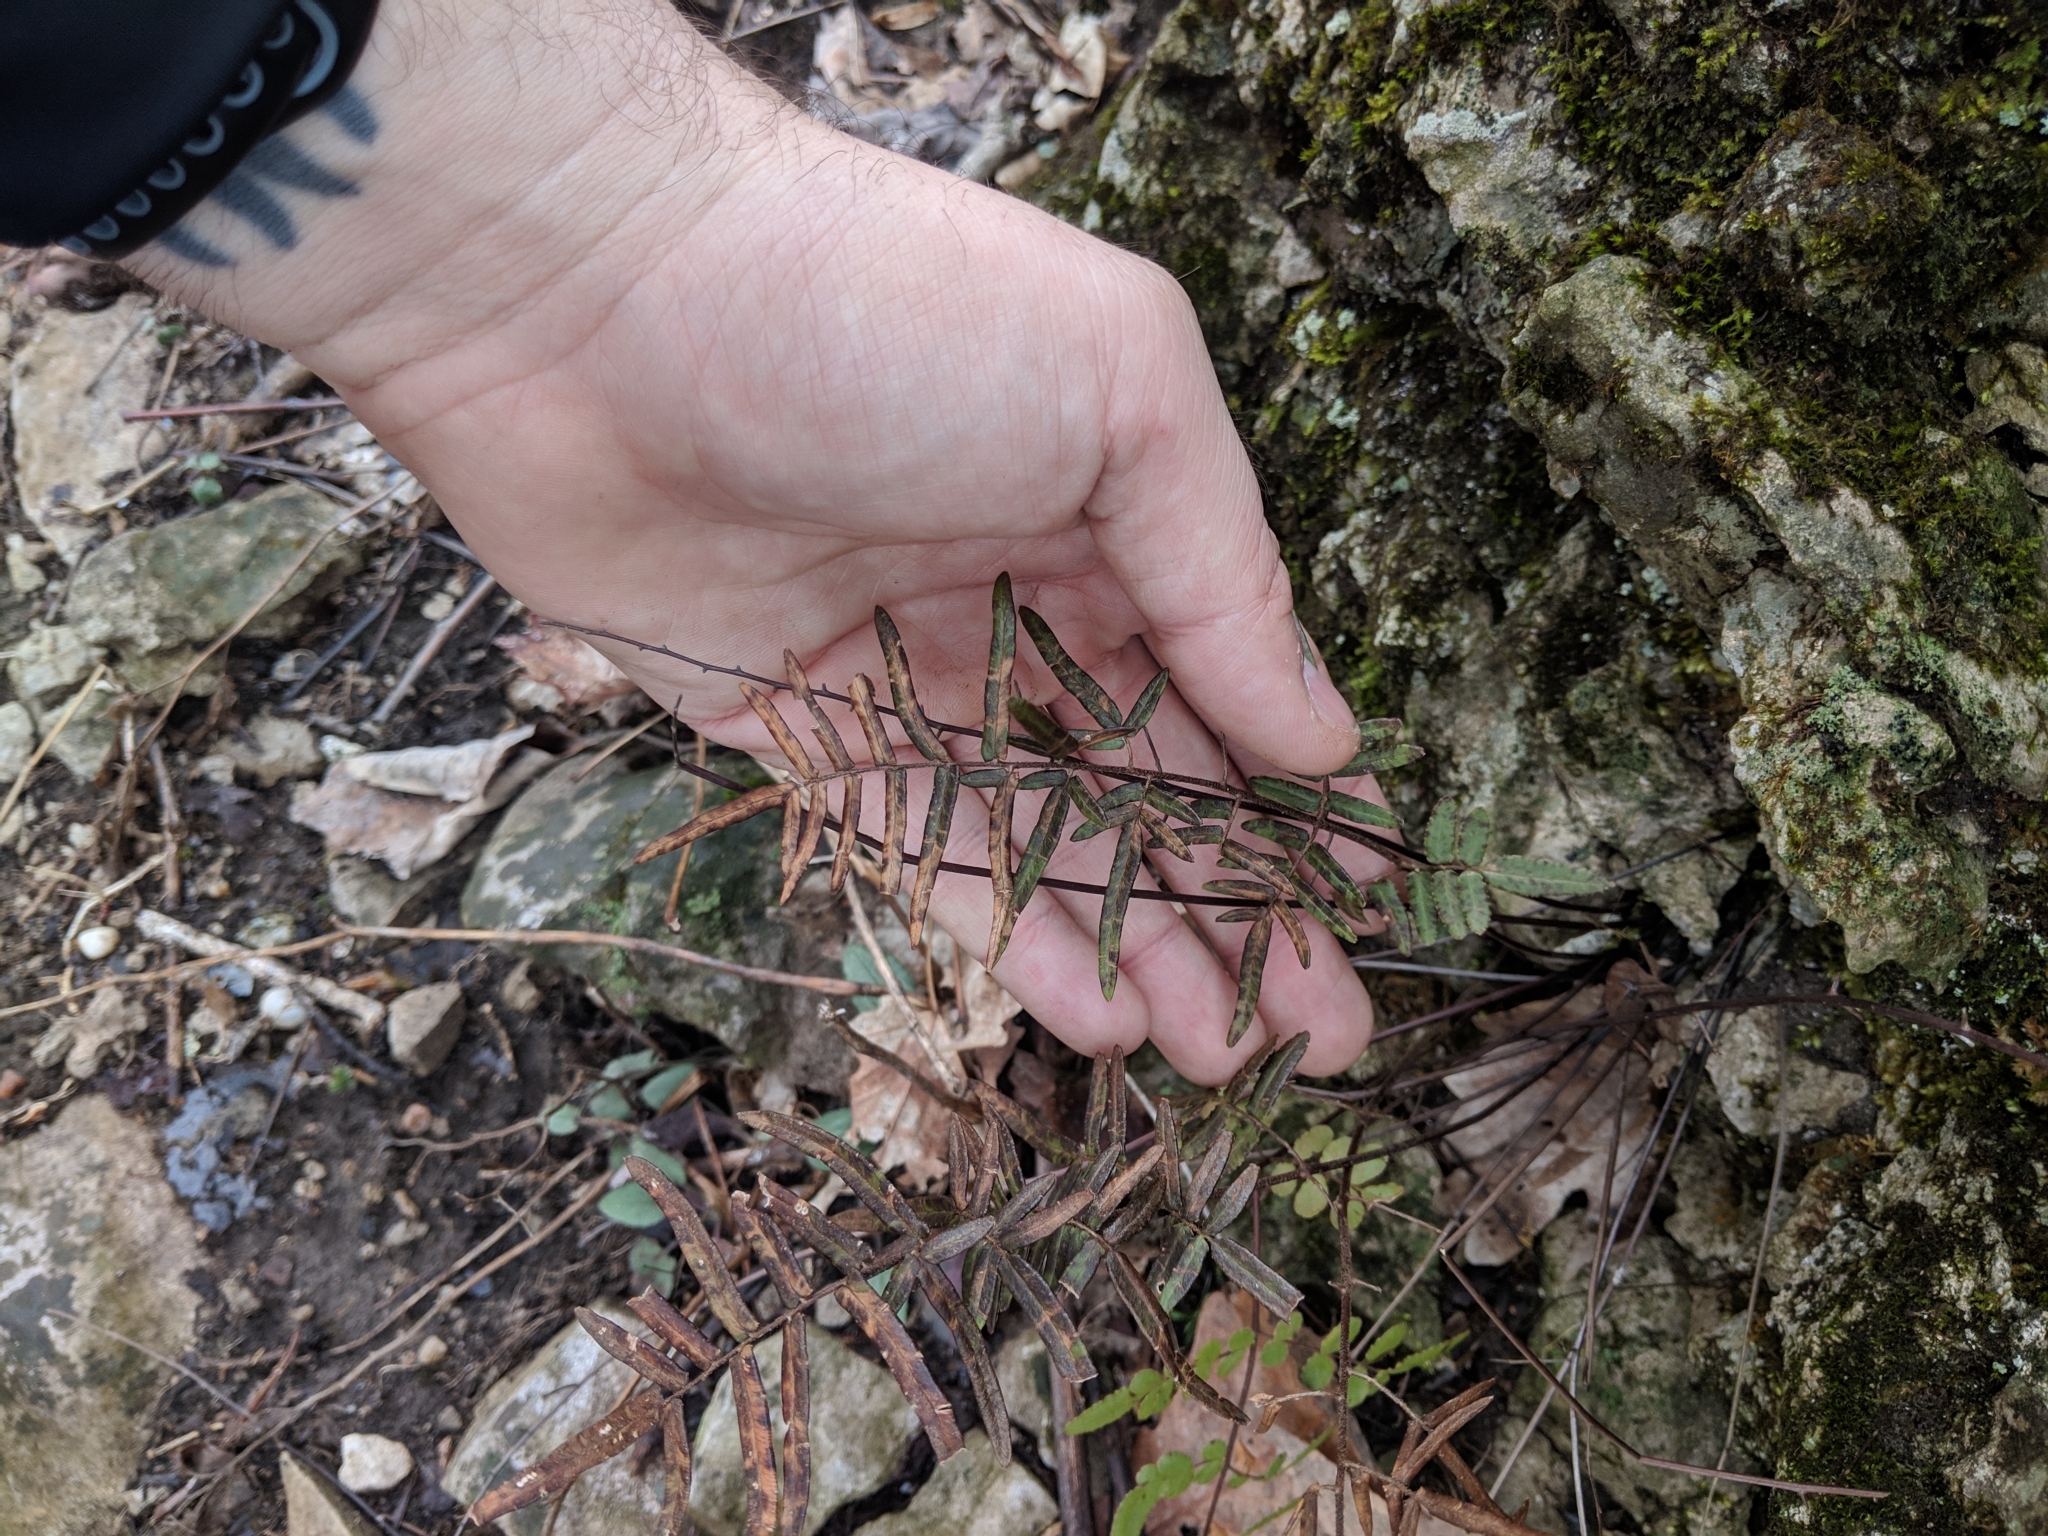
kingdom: Plantae
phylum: Tracheophyta
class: Polypodiopsida
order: Polypodiales
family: Pteridaceae
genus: Pellaea
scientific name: Pellaea atropurpurea
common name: Hairy cliffbrake
